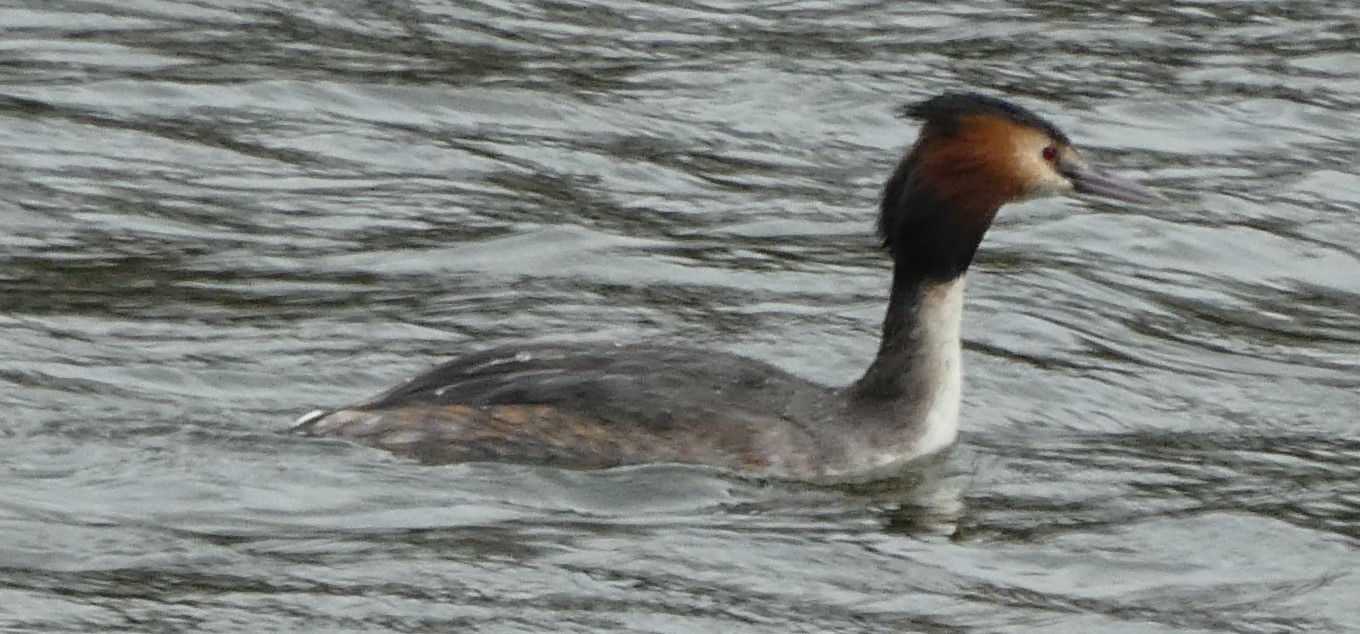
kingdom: Animalia
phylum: Chordata
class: Aves
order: Podicipediformes
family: Podicipedidae
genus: Podiceps
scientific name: Podiceps cristatus
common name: Great crested grebe
